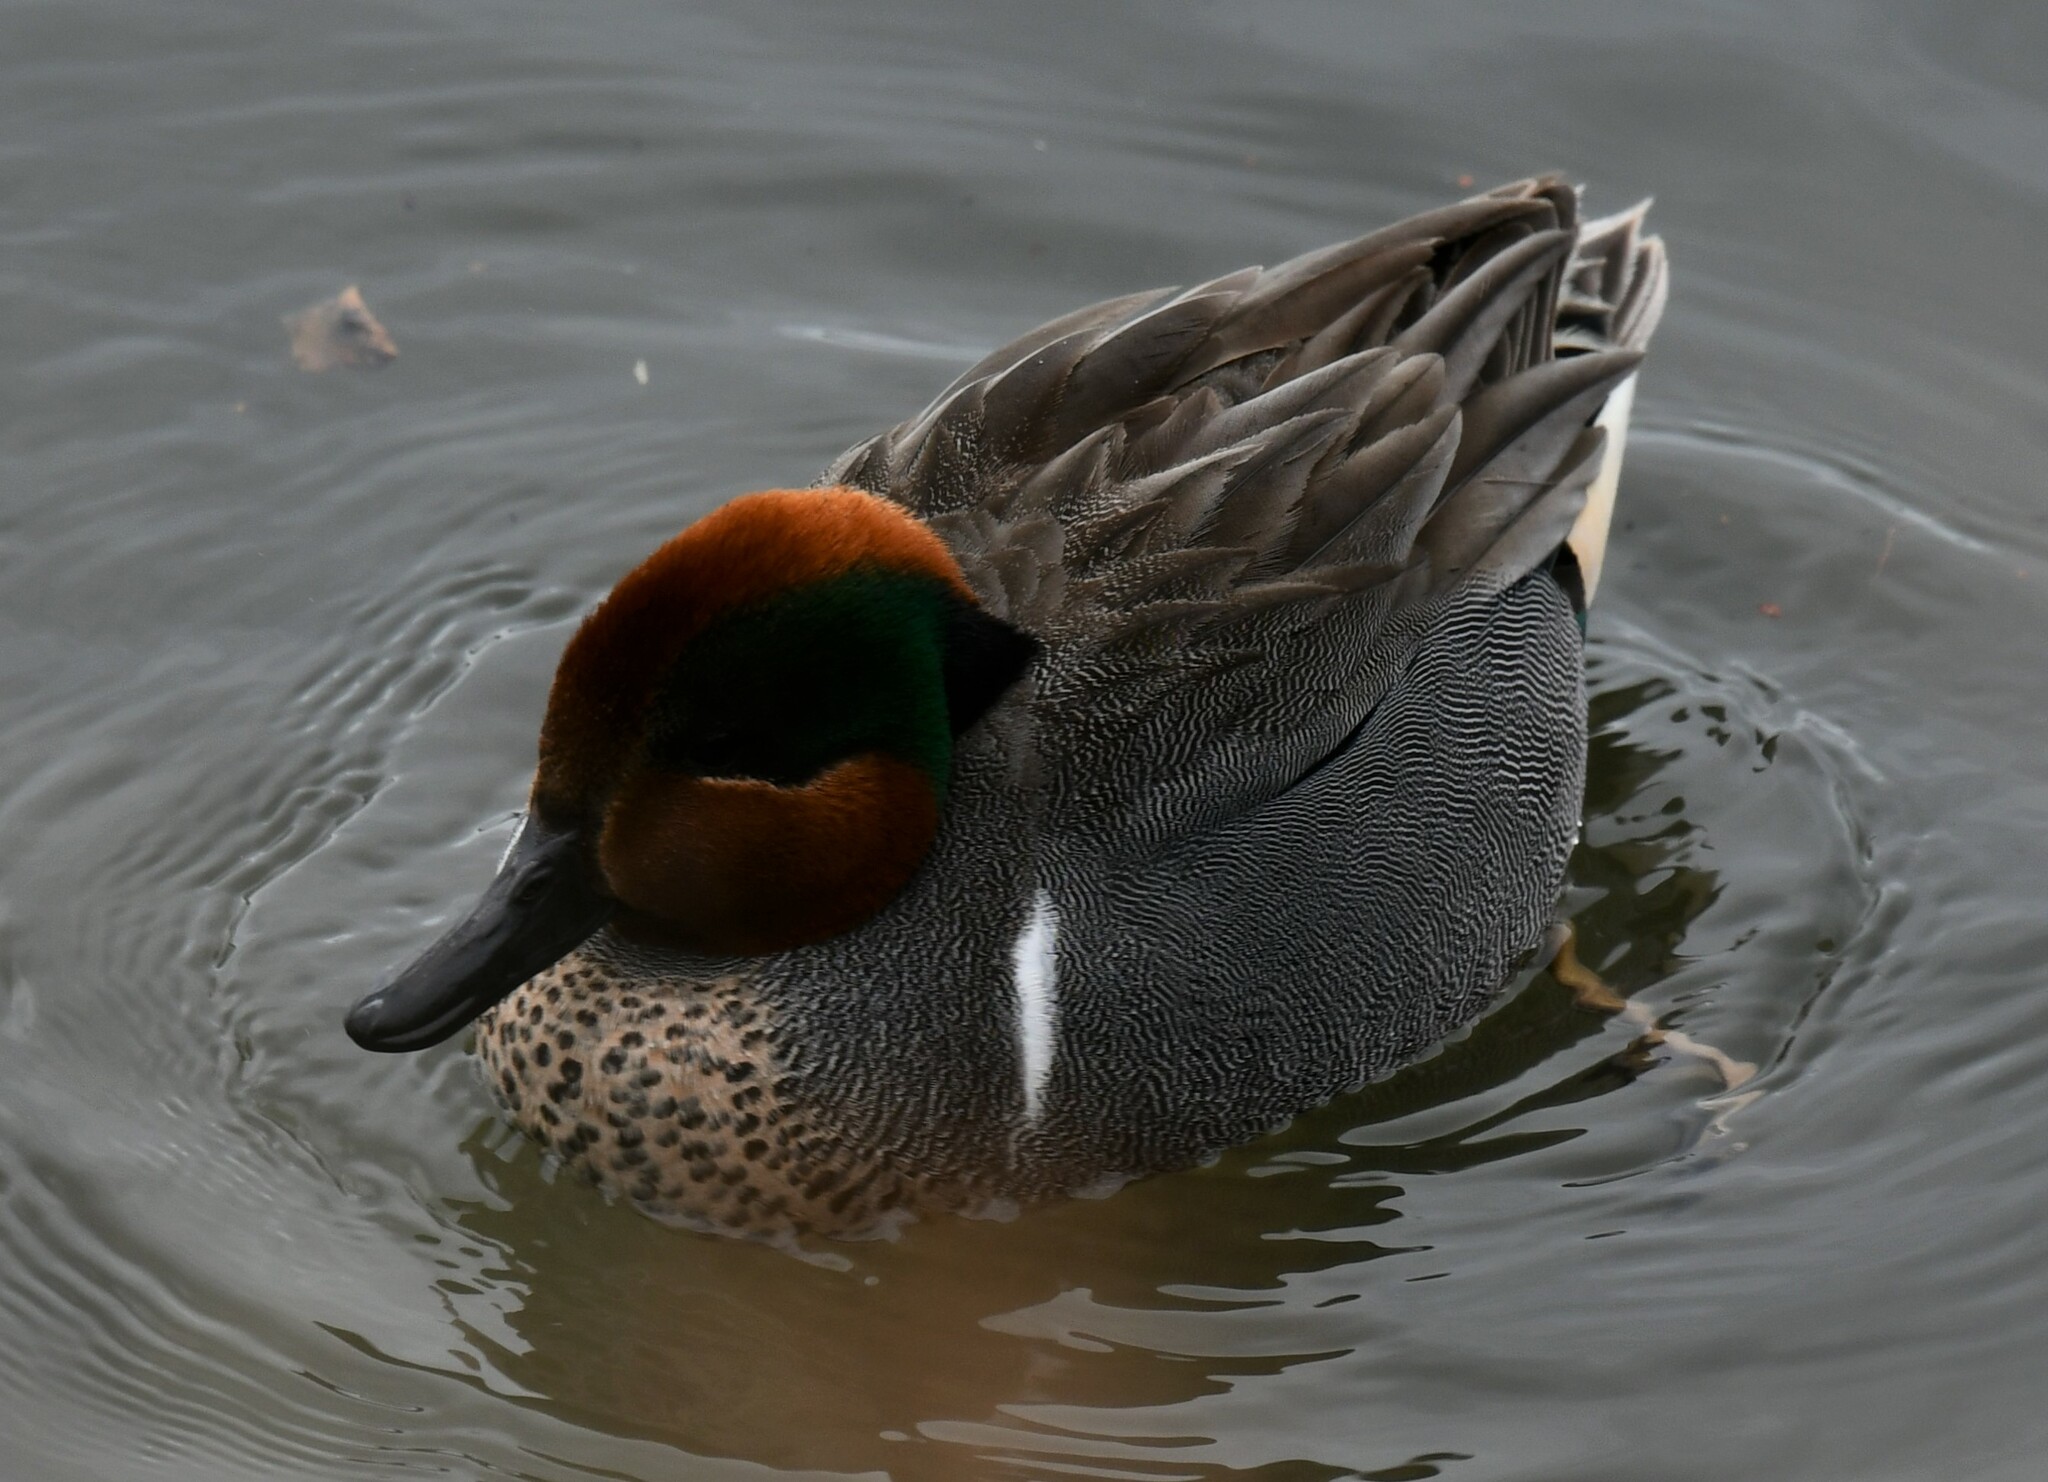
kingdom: Animalia
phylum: Chordata
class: Aves
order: Anseriformes
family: Anatidae
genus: Anas
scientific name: Anas crecca
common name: Eurasian teal
